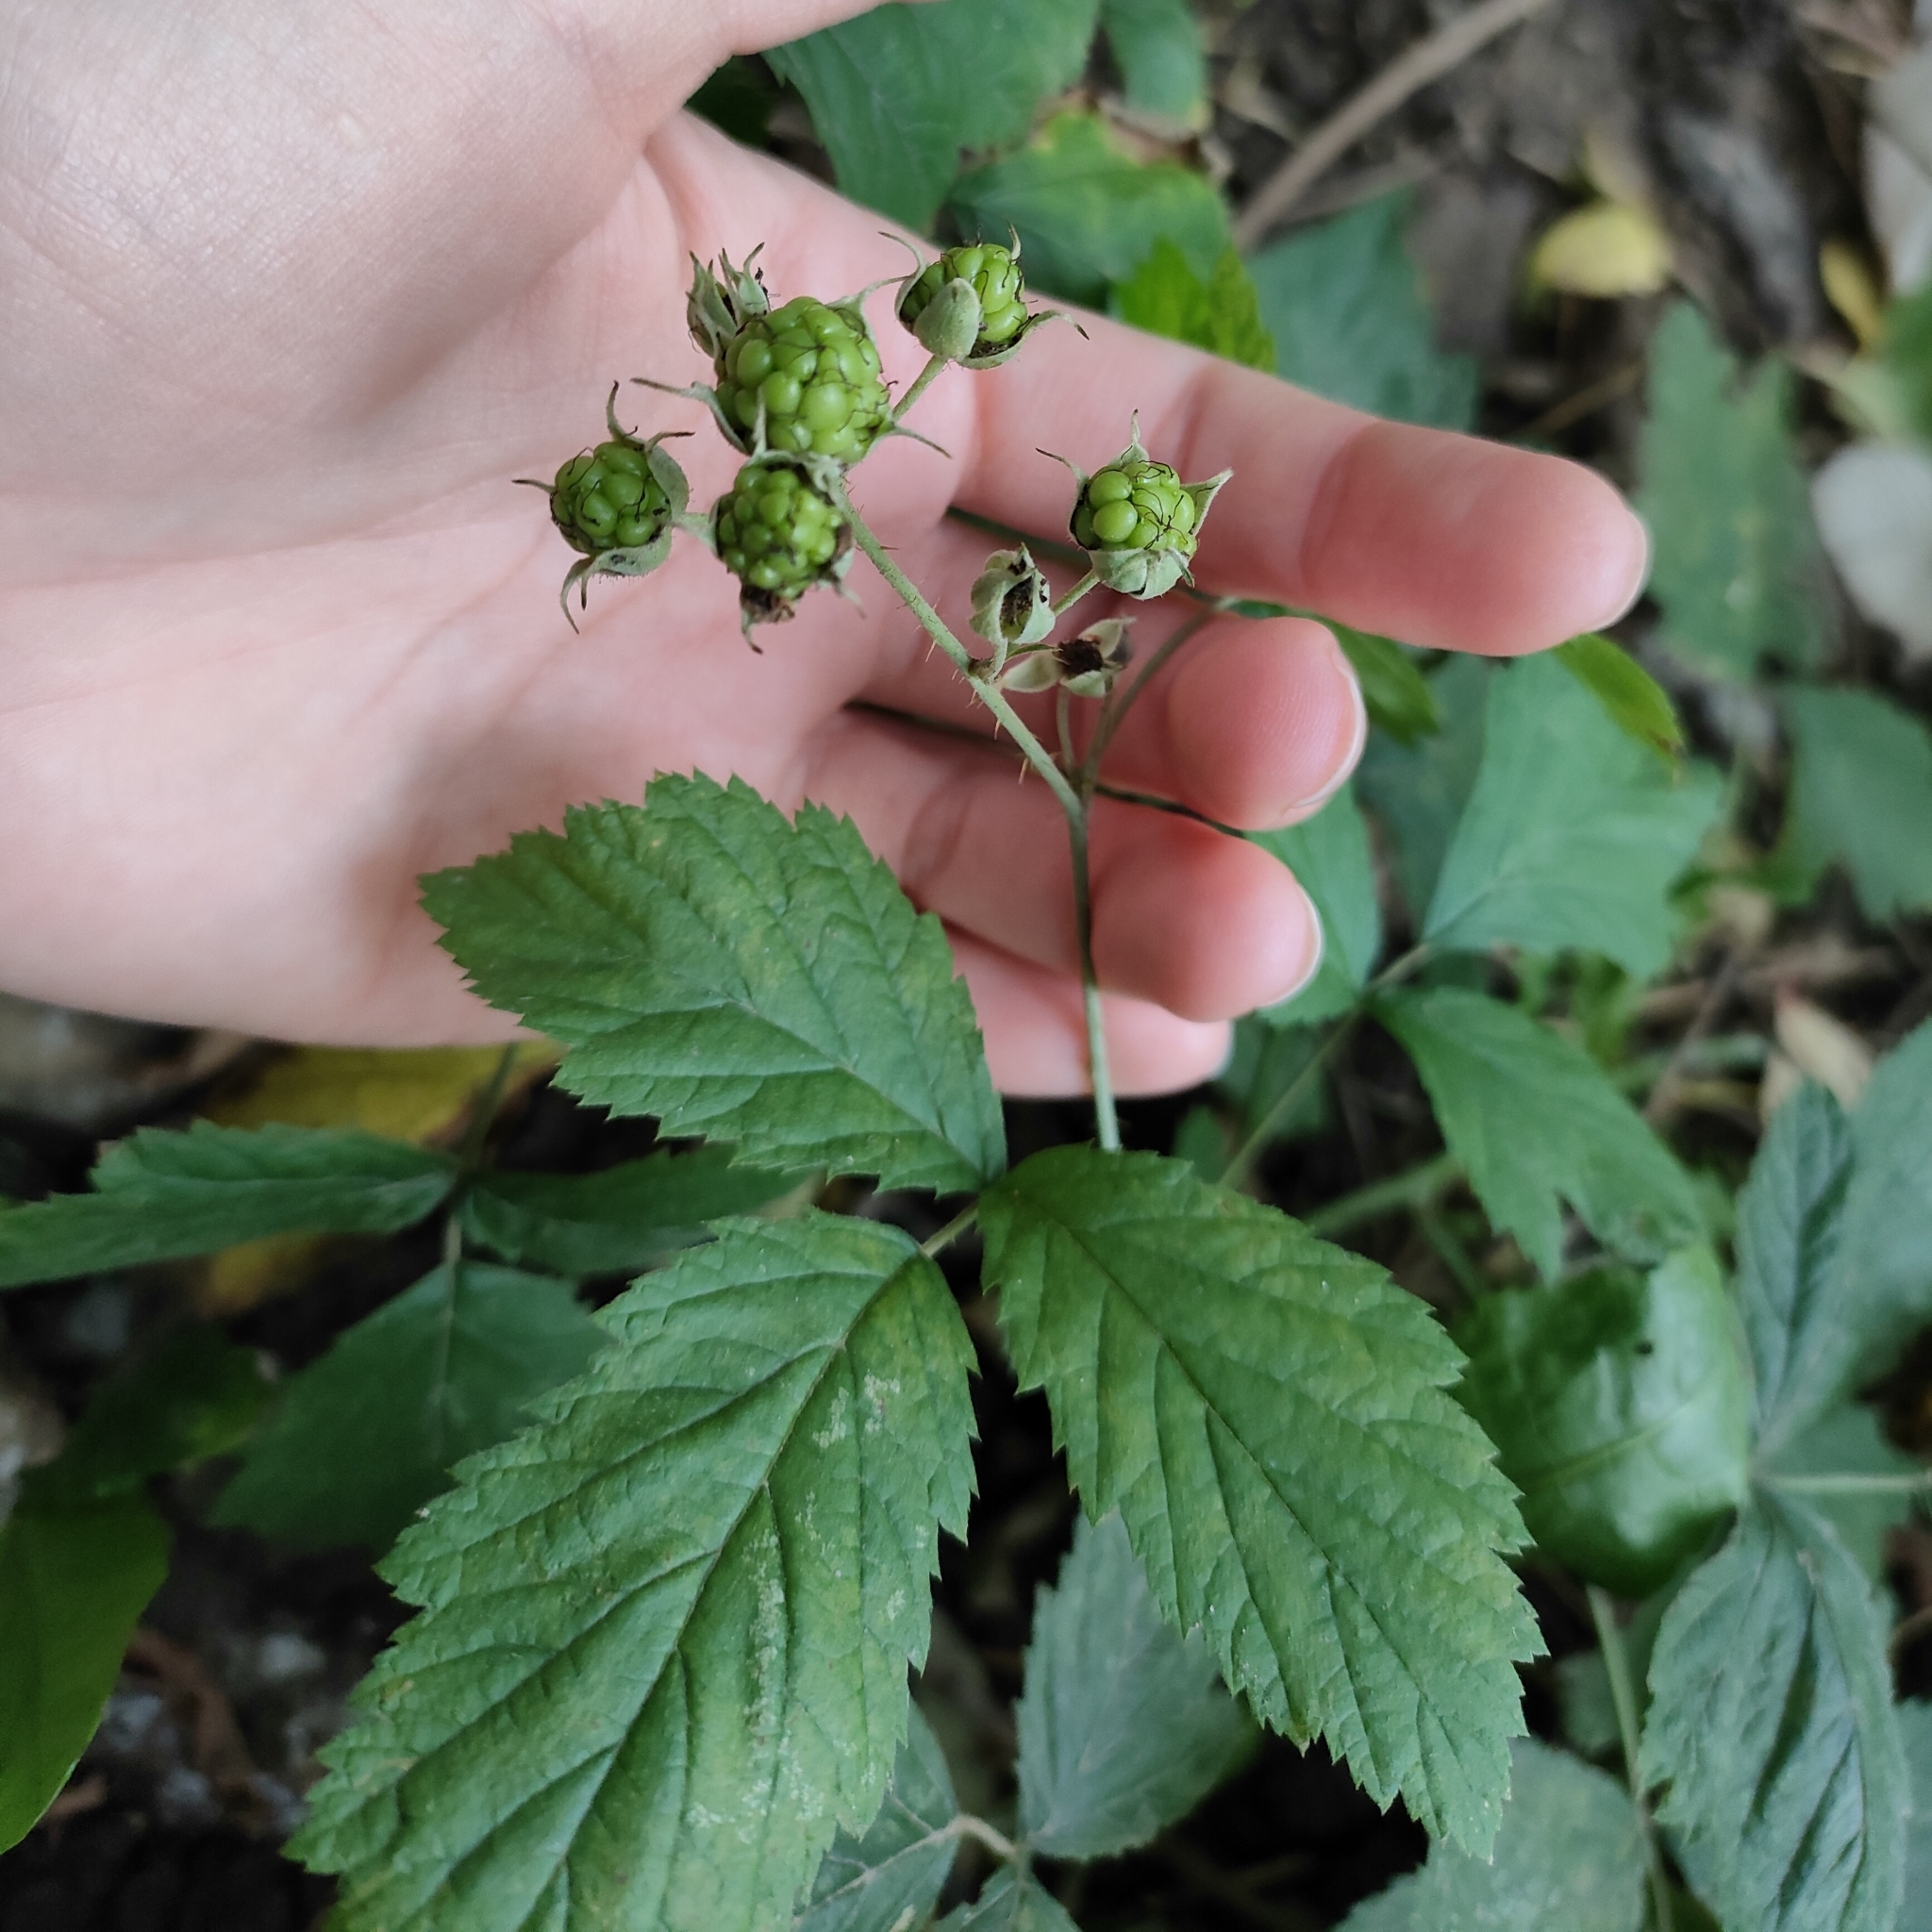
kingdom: Plantae
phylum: Tracheophyta
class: Magnoliopsida
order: Rosales
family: Rosaceae
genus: Rubus
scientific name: Rubus caesius
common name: Dewberry
